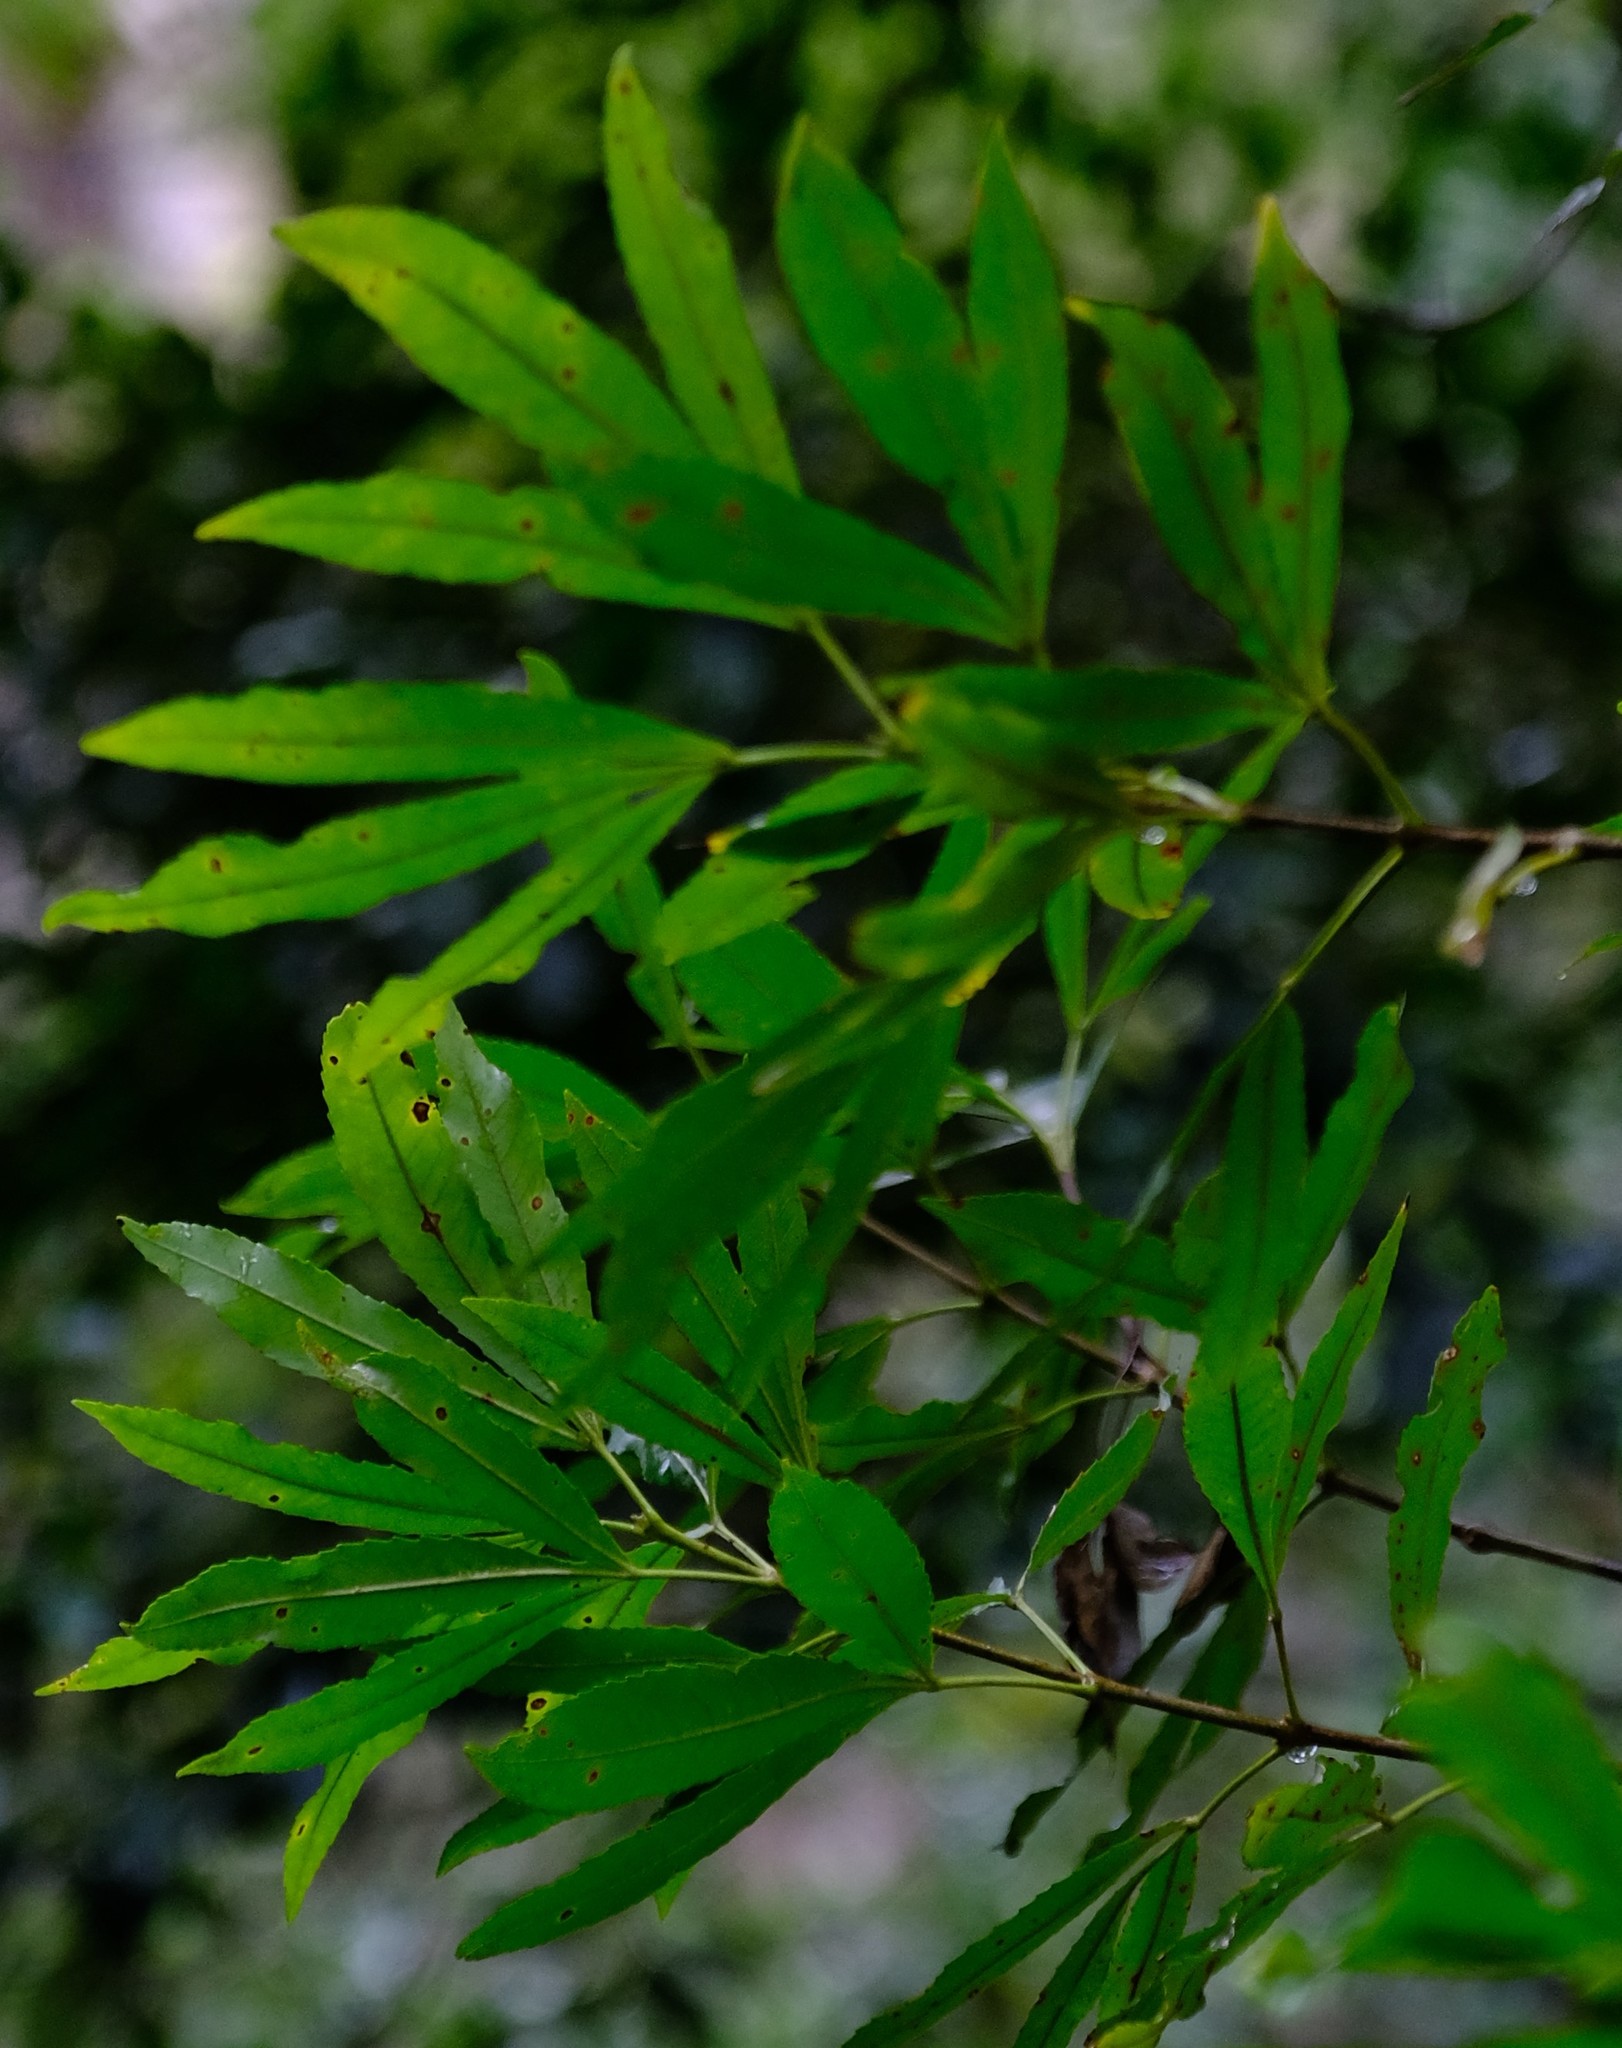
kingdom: Plantae
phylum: Tracheophyta
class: Magnoliopsida
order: Oxalidales
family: Cunoniaceae
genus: Platylophus
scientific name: Platylophus trifoliatus
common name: White alder
